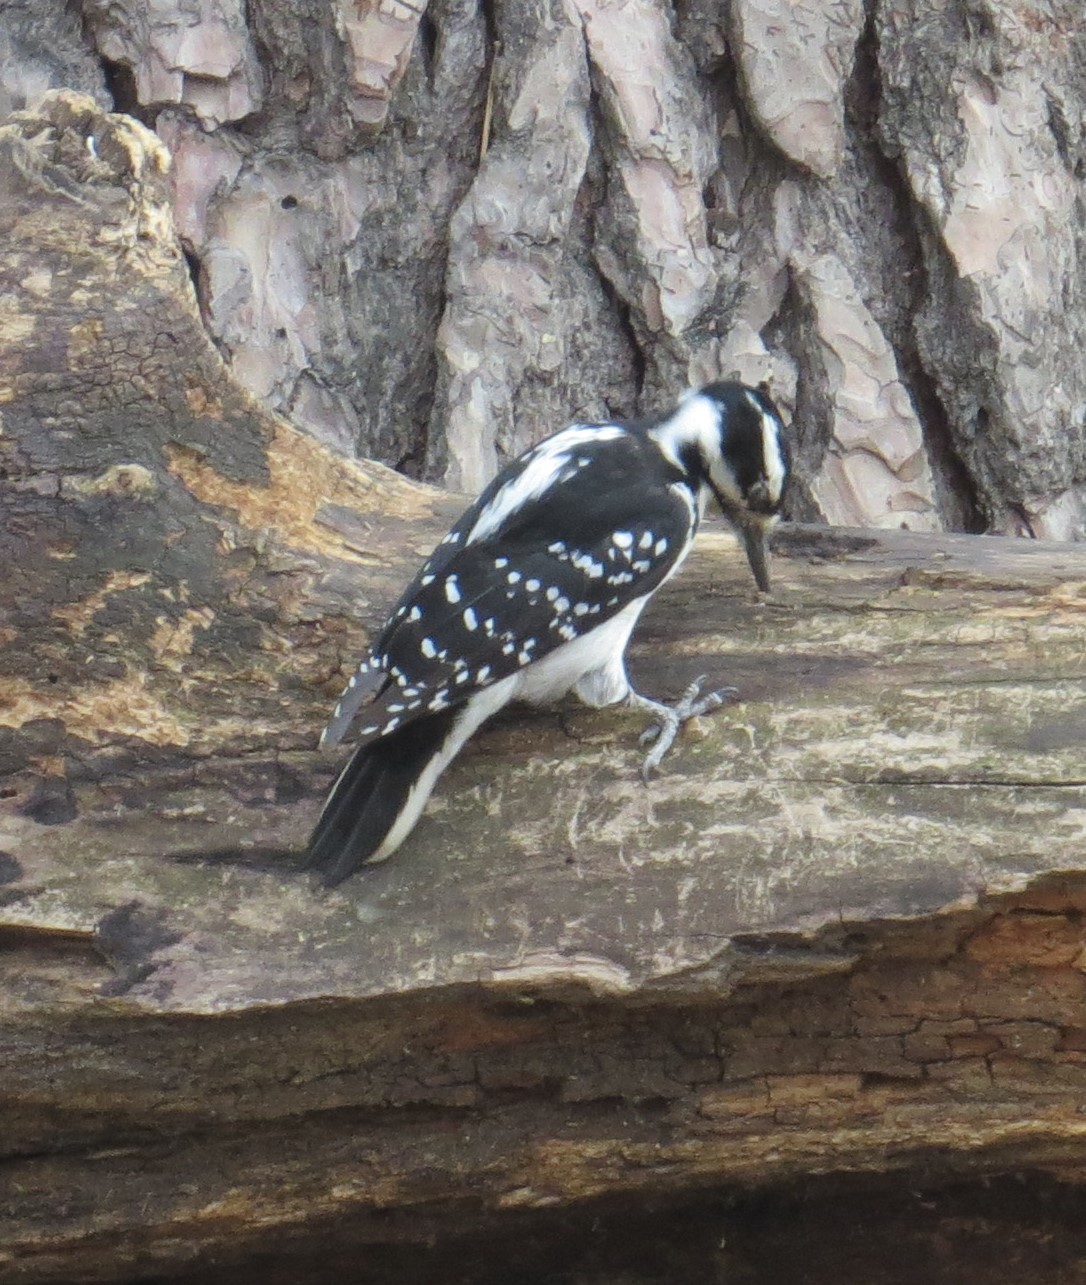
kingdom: Animalia
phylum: Chordata
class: Aves
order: Piciformes
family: Picidae
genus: Leuconotopicus
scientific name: Leuconotopicus villosus
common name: Hairy woodpecker
